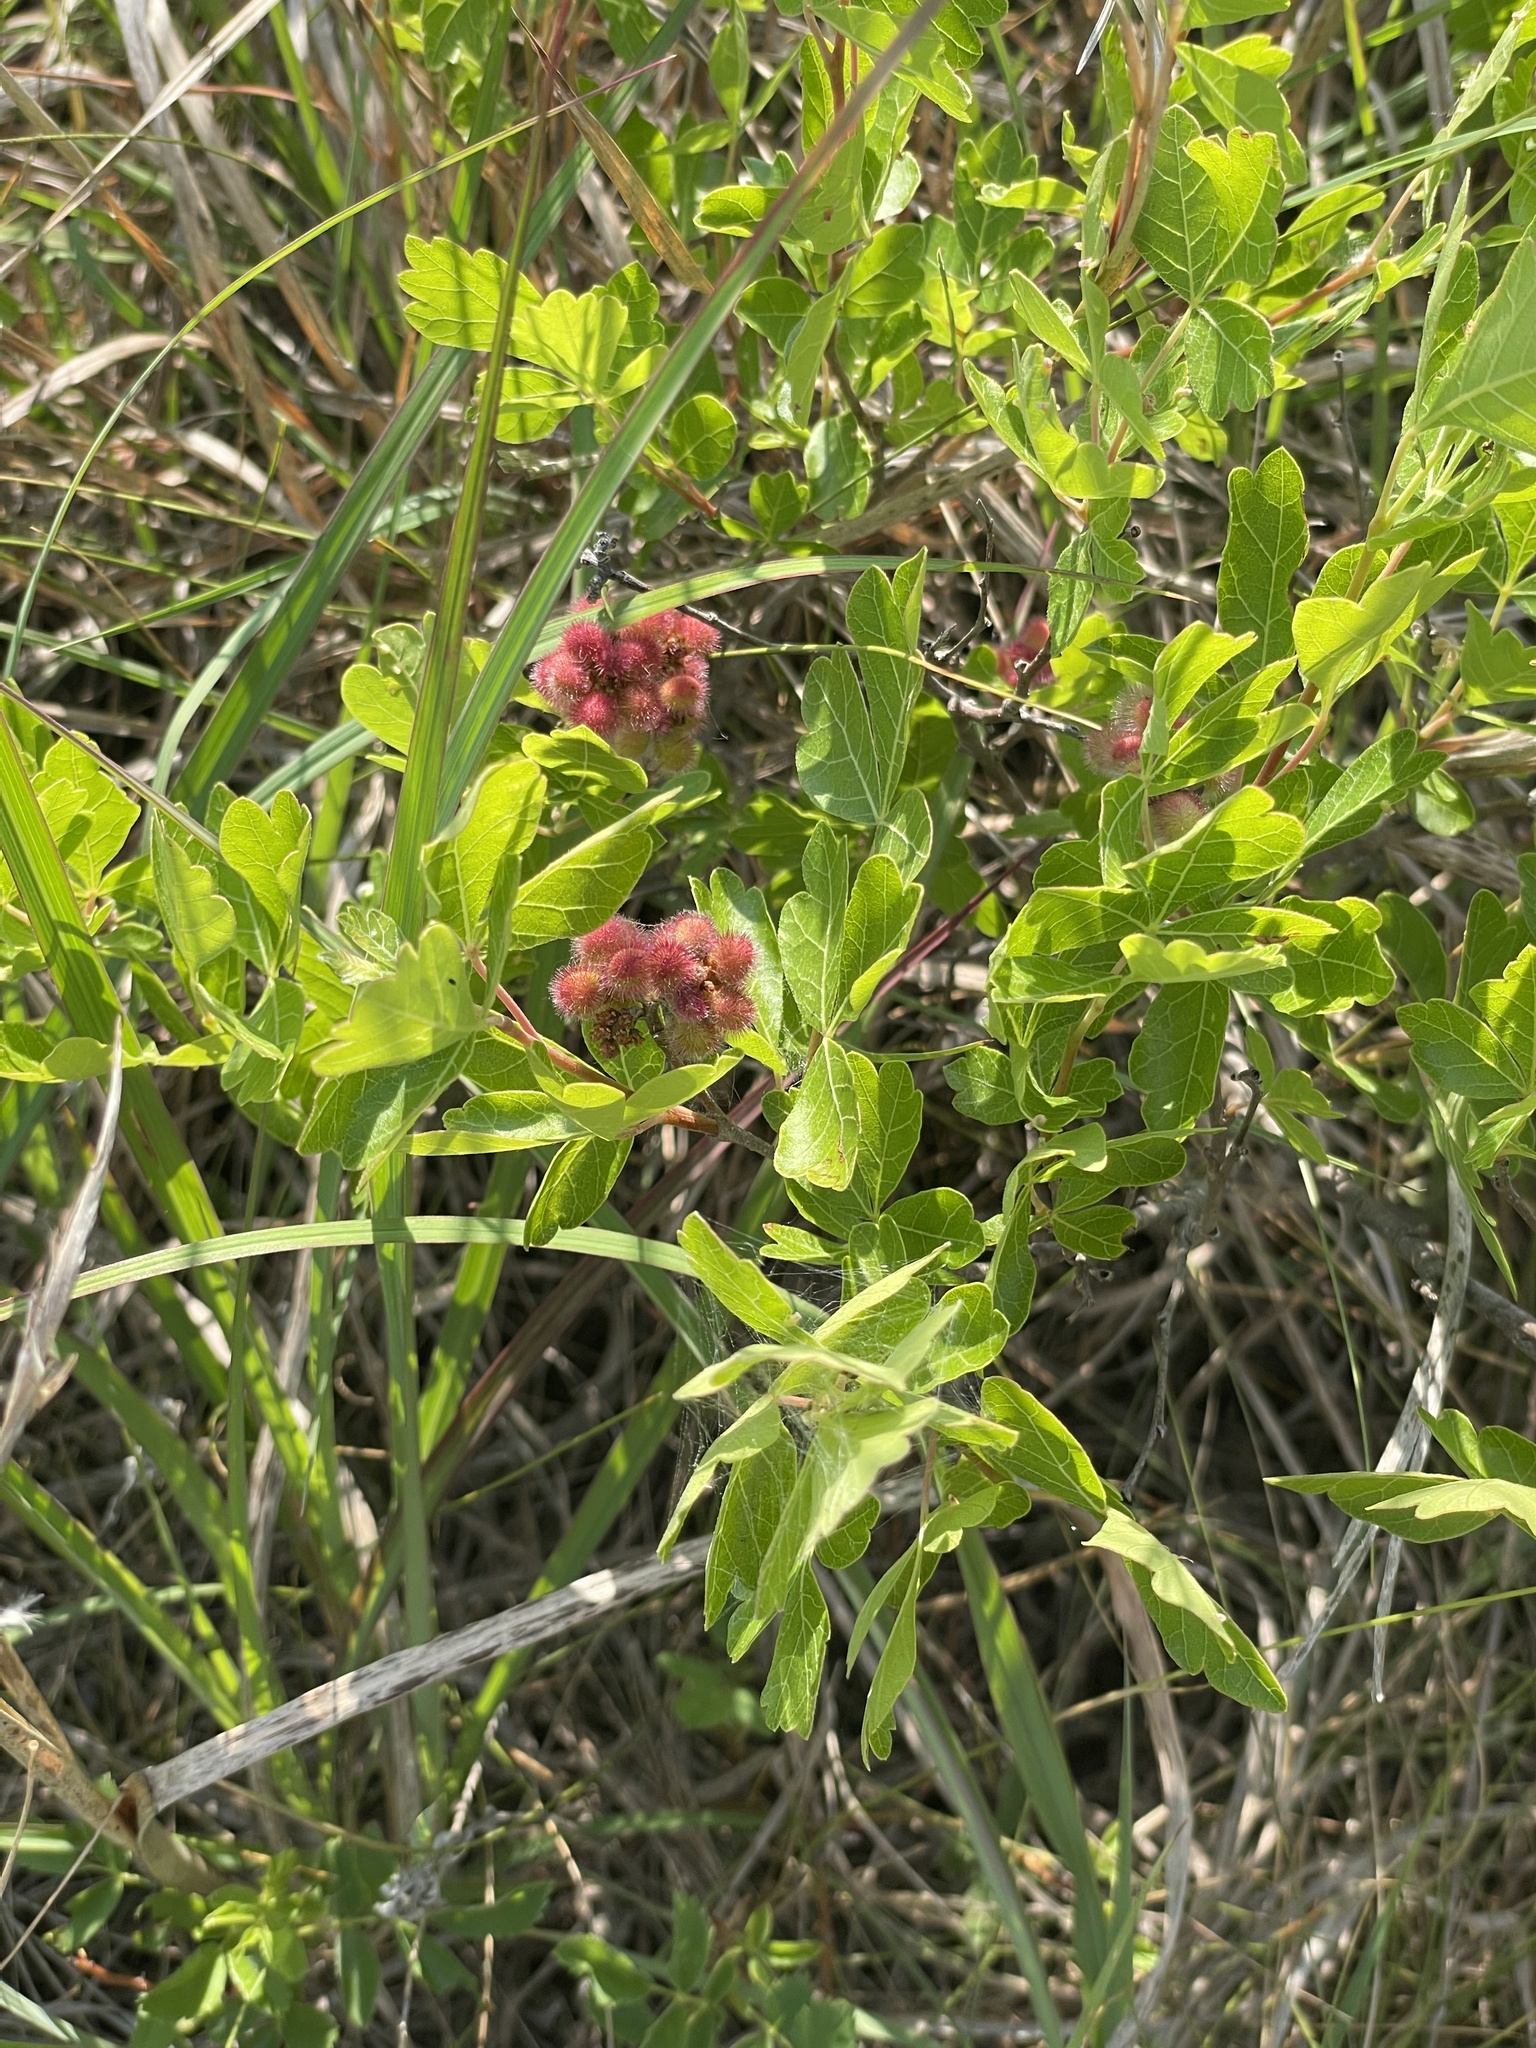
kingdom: Plantae
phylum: Tracheophyta
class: Magnoliopsida
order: Sapindales
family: Anacardiaceae
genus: Rhus
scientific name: Rhus aromatica
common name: Aromatic sumac
